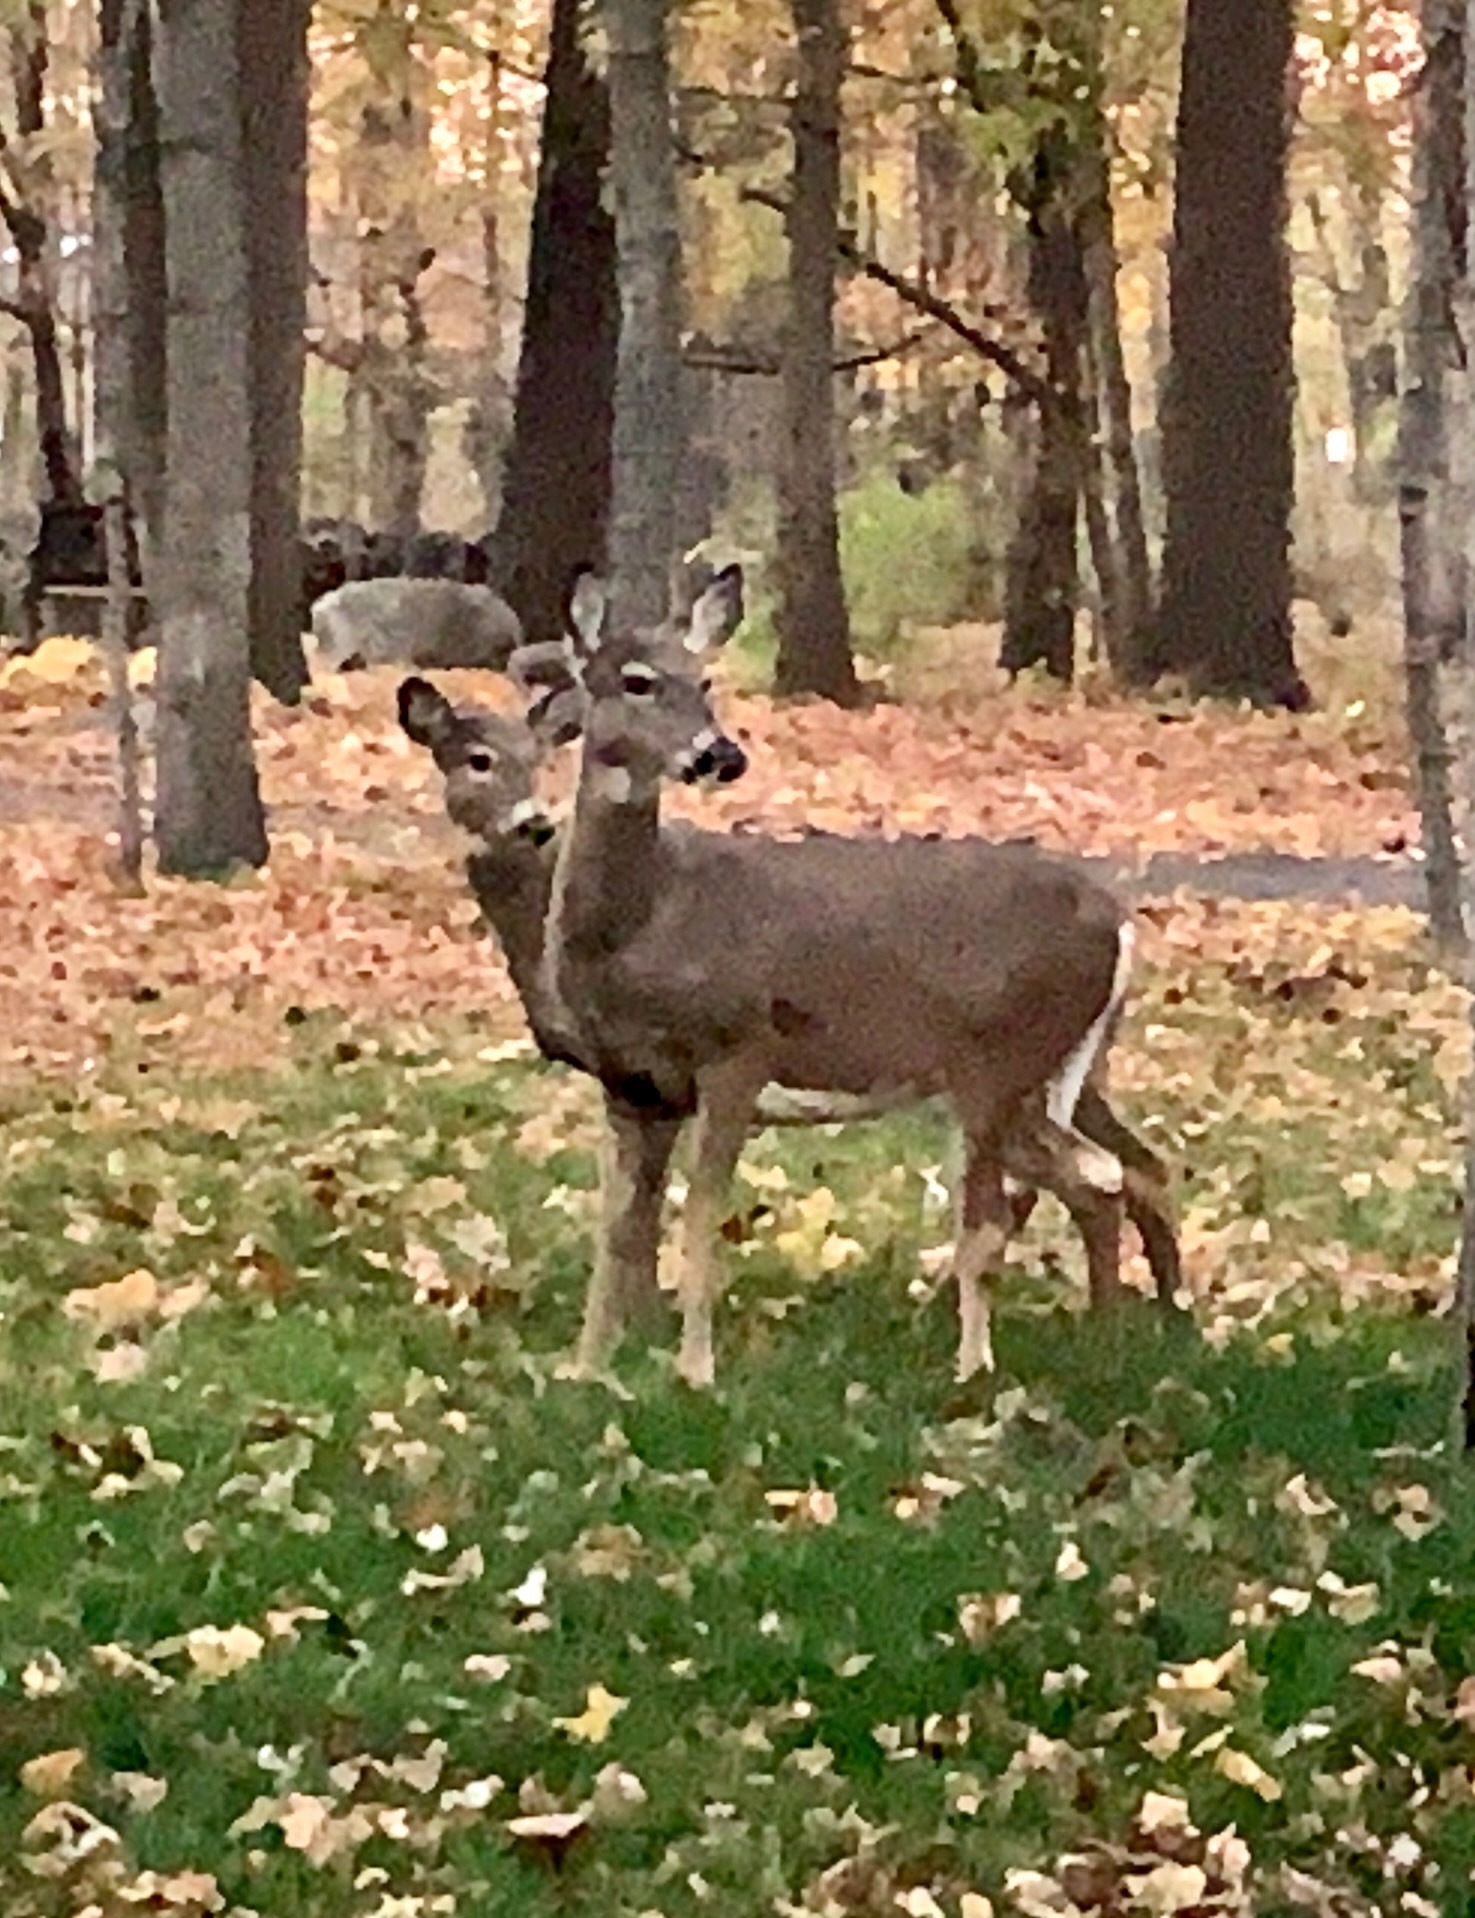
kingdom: Animalia
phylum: Chordata
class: Mammalia
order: Artiodactyla
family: Cervidae
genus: Odocoileus
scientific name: Odocoileus virginianus
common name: White-tailed deer
